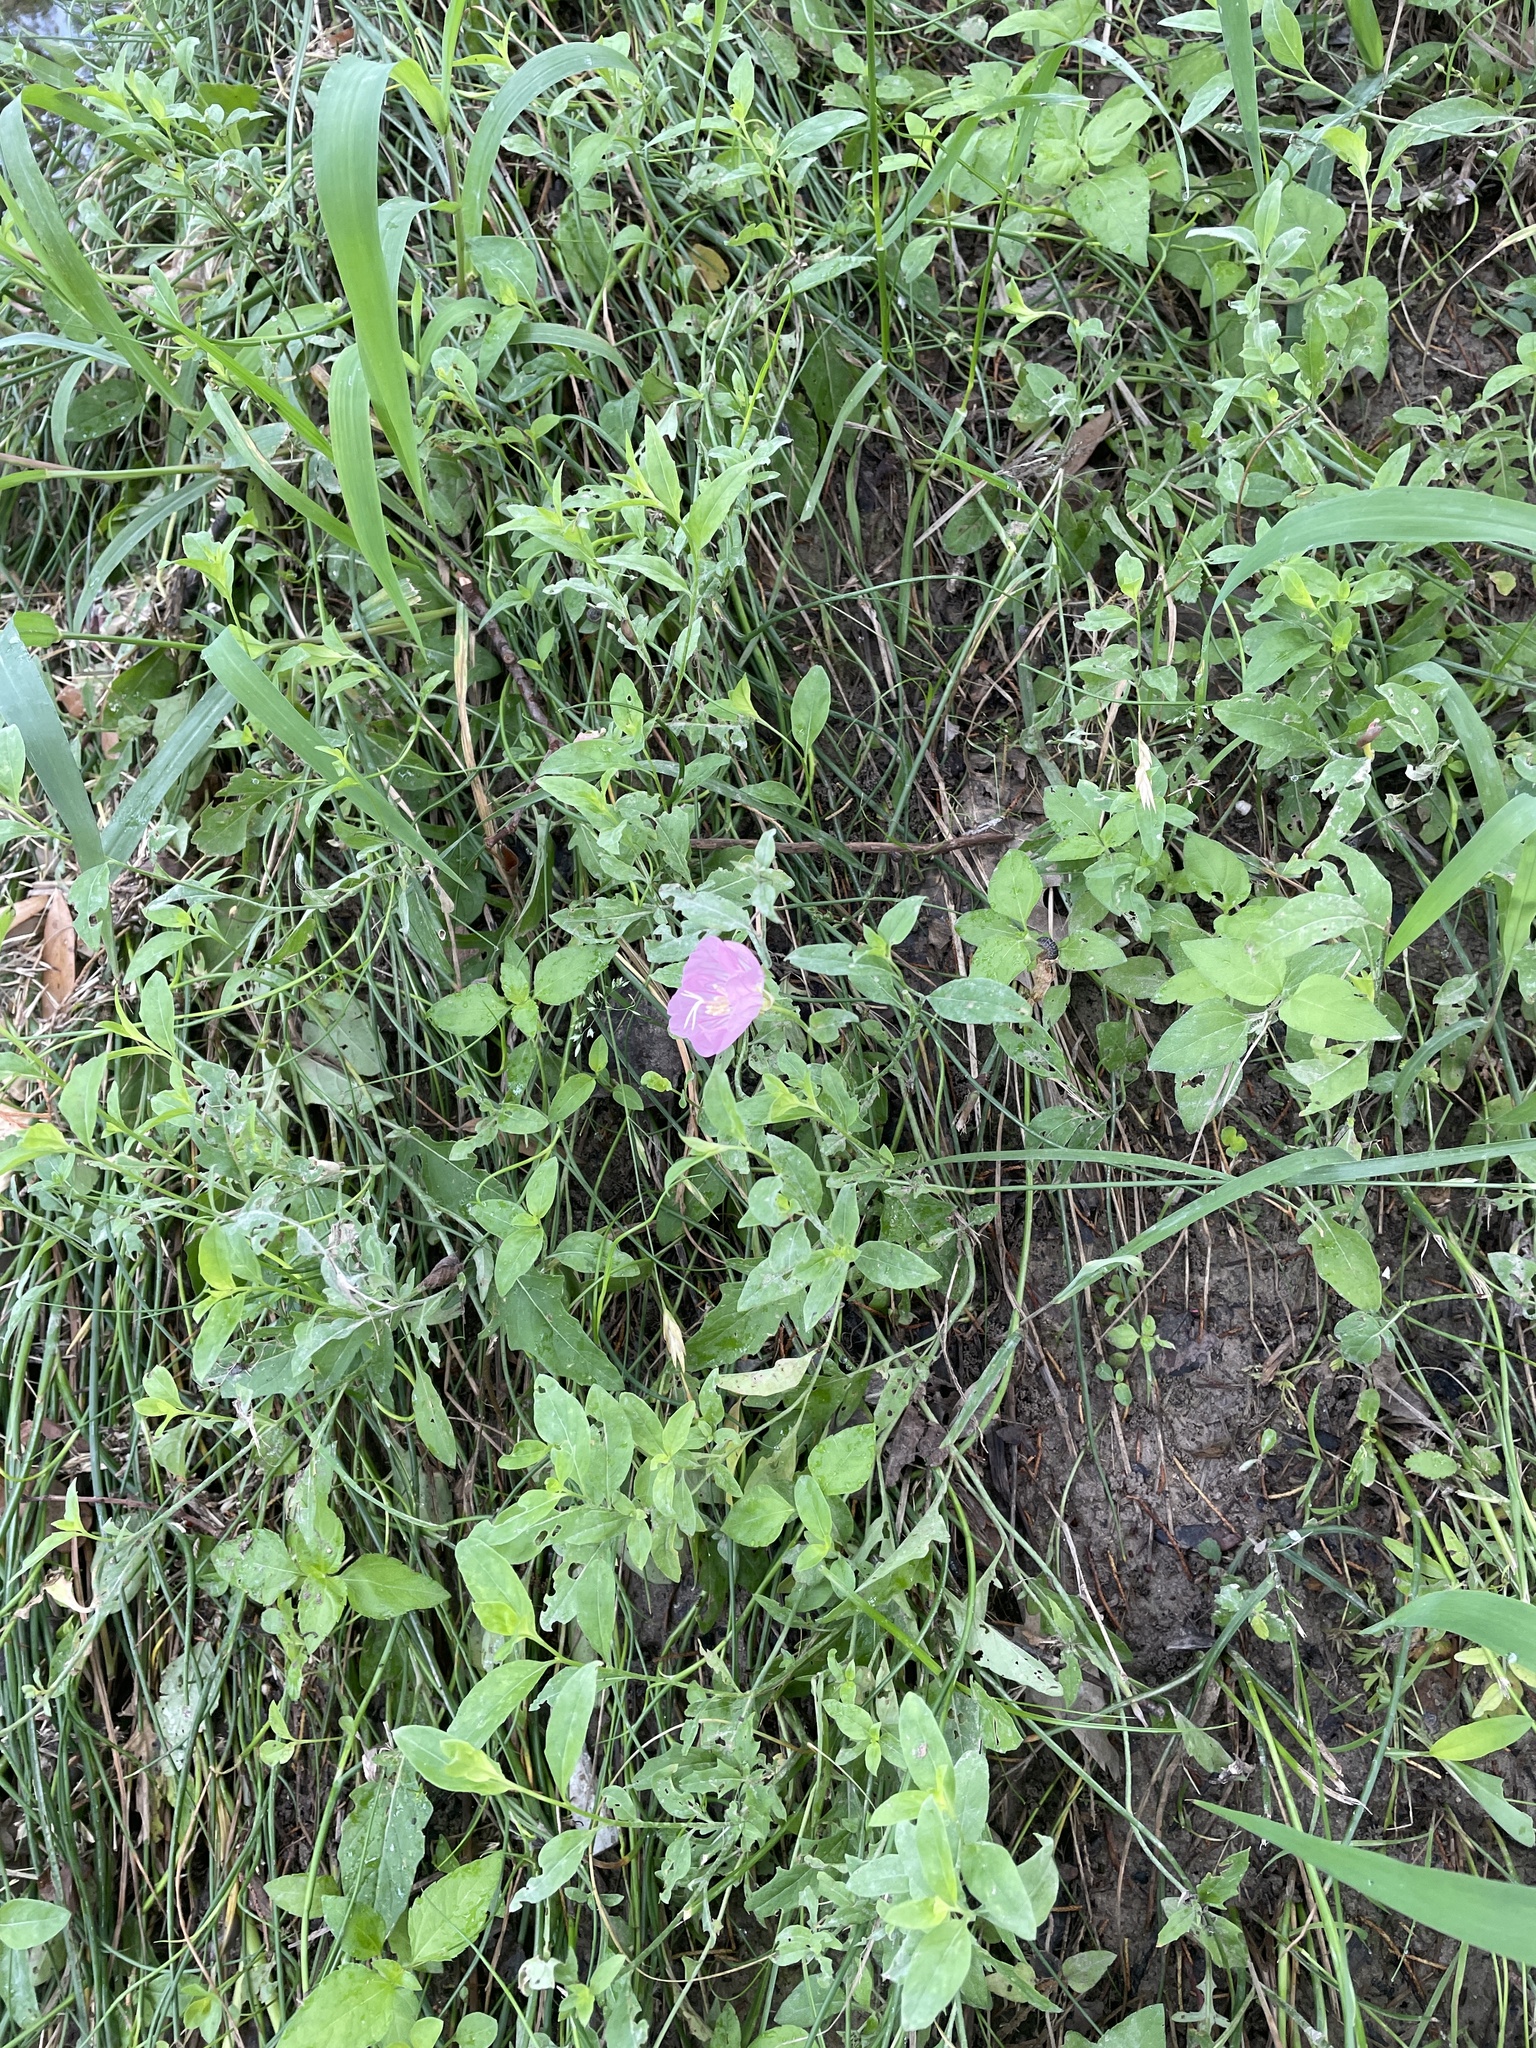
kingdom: Plantae
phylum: Tracheophyta
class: Magnoliopsida
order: Myrtales
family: Onagraceae
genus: Oenothera
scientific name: Oenothera speciosa
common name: White evening-primrose
